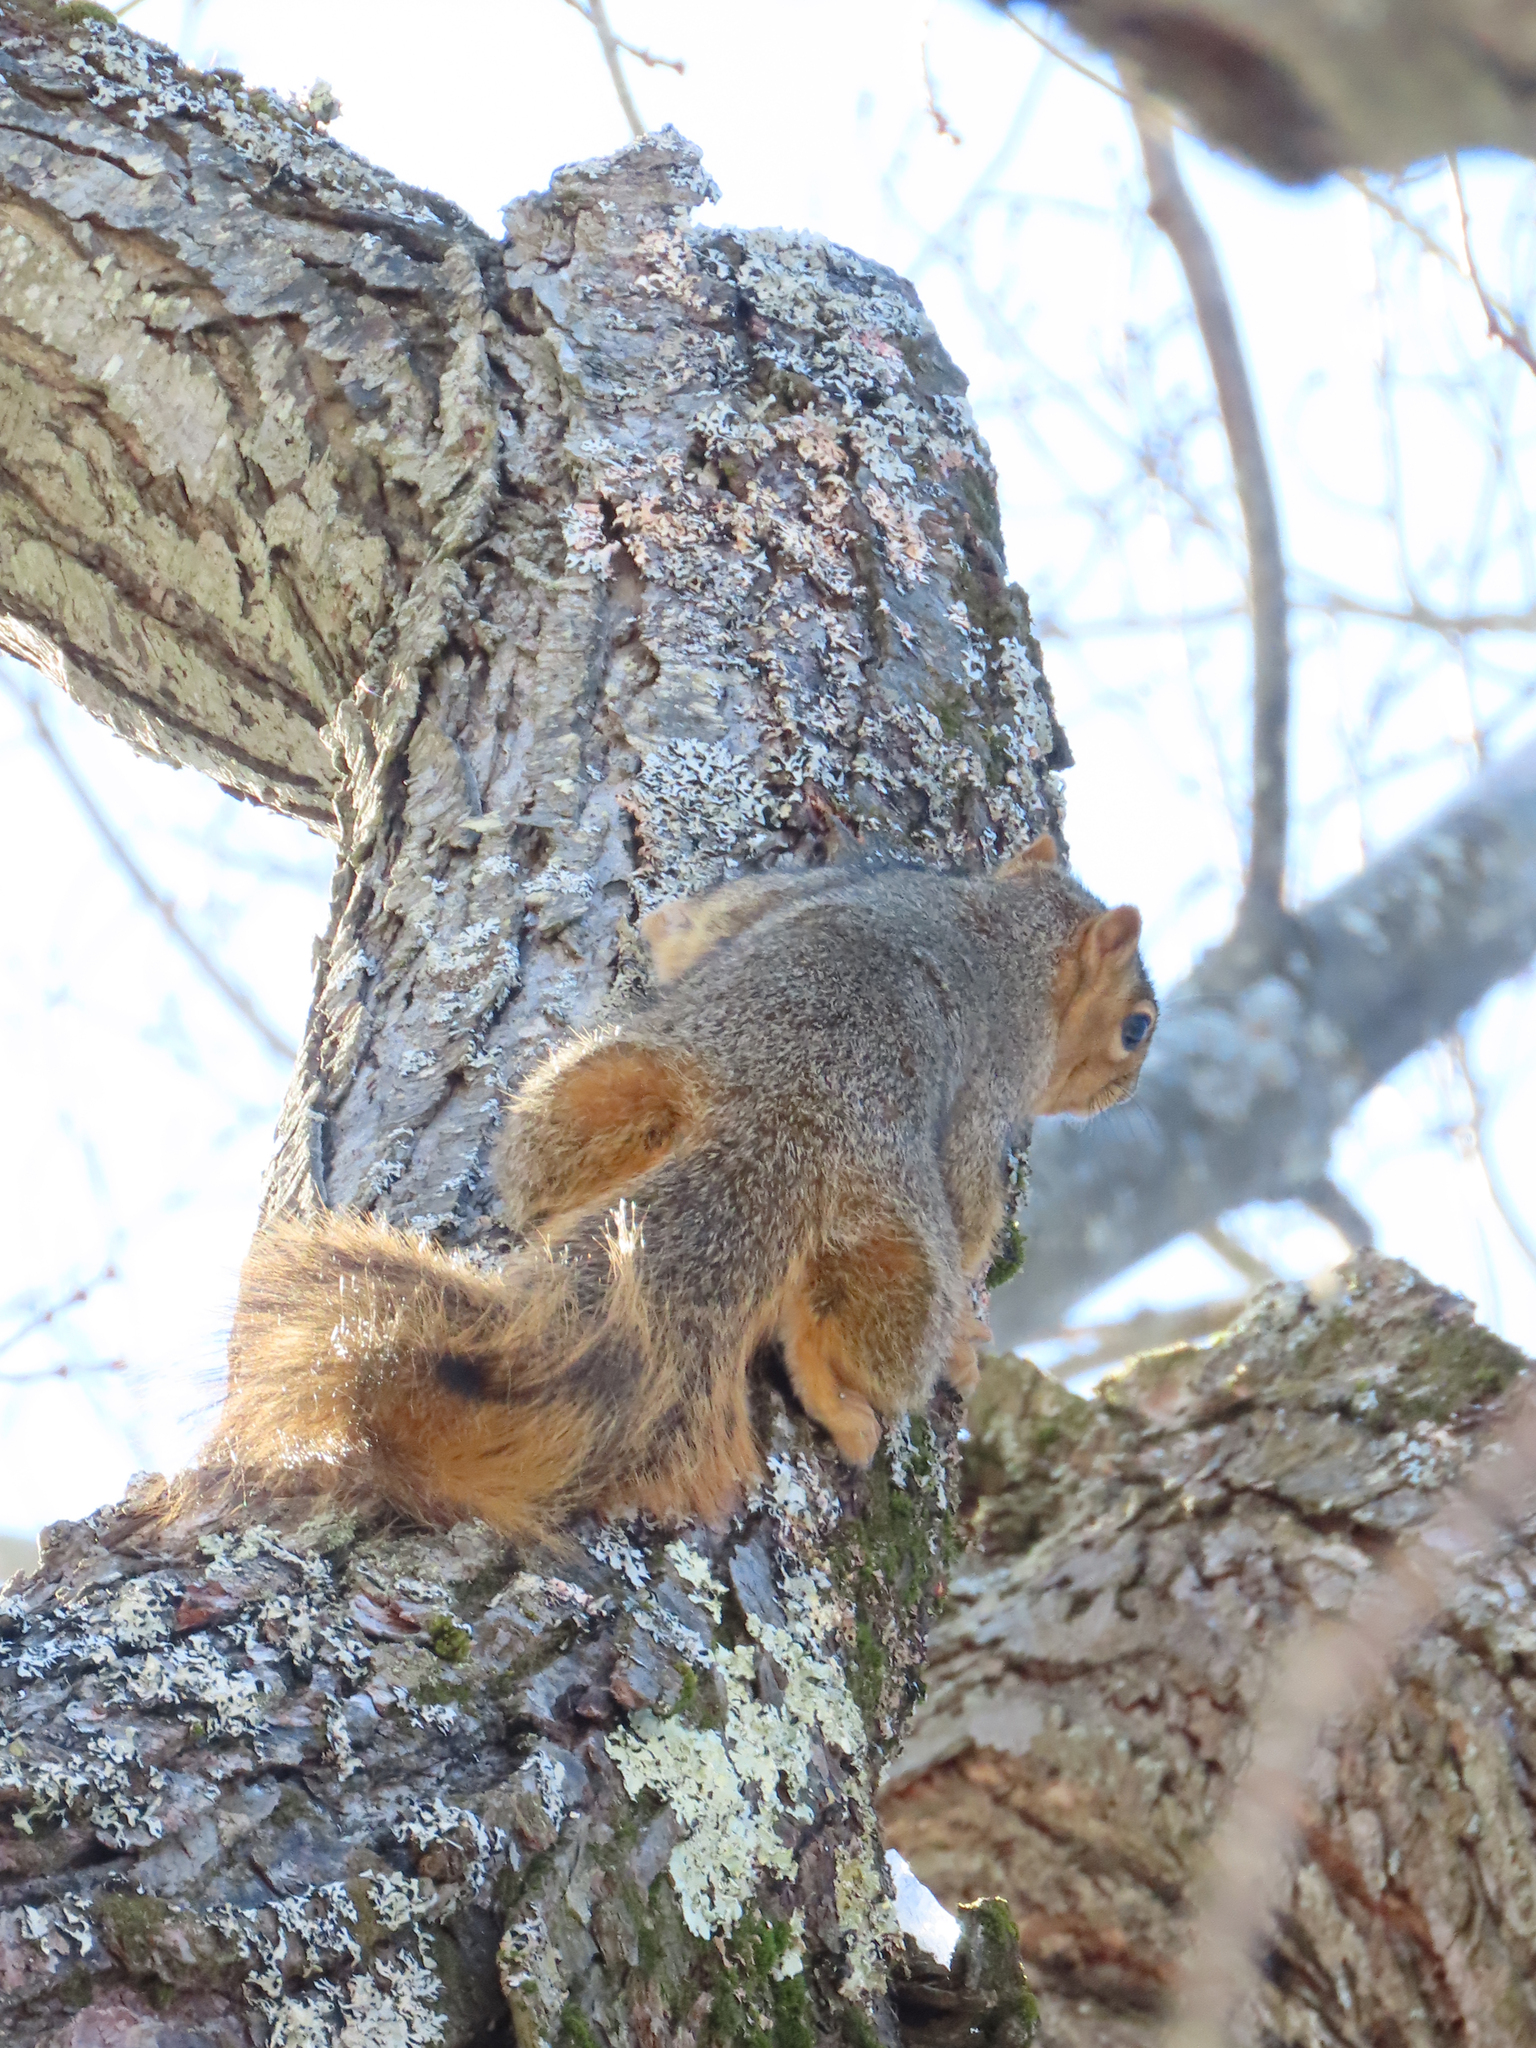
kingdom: Animalia
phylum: Chordata
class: Mammalia
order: Rodentia
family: Sciuridae
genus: Sciurus
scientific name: Sciurus niger
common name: Fox squirrel
